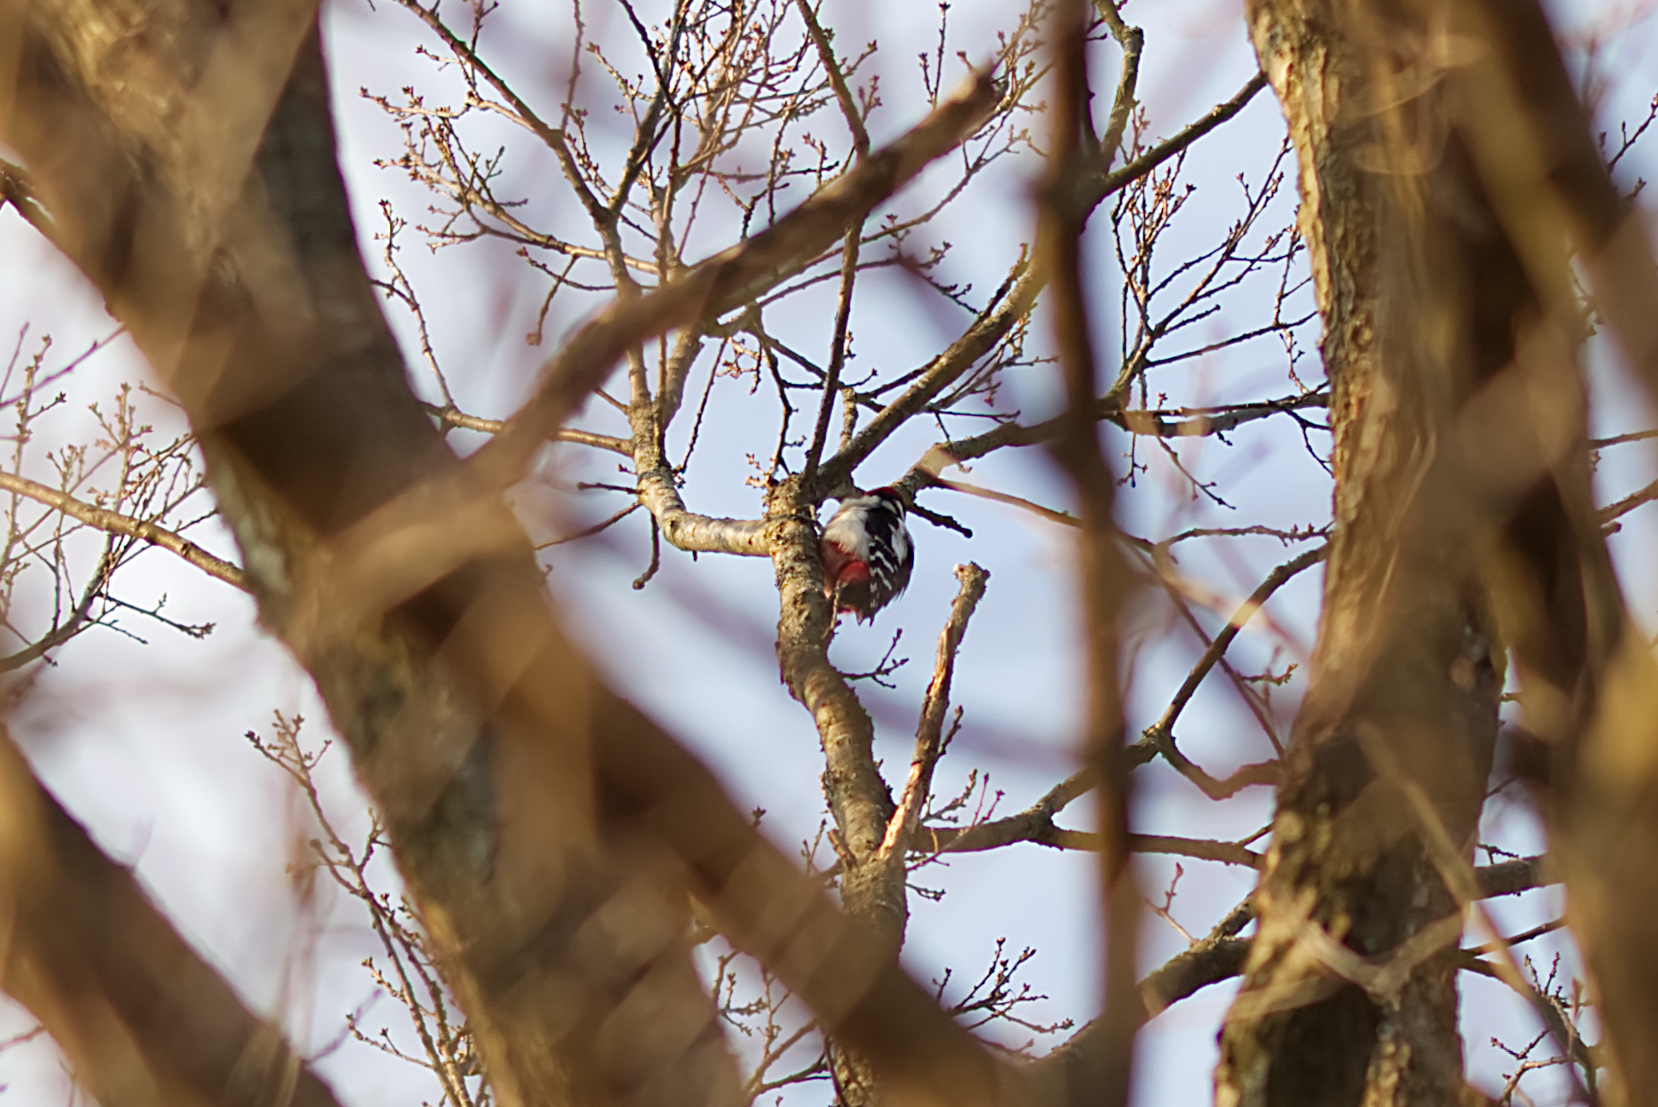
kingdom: Animalia
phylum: Chordata
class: Aves
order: Piciformes
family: Picidae
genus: Dendrocopos
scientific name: Dendrocopos major
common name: Great spotted woodpecker
